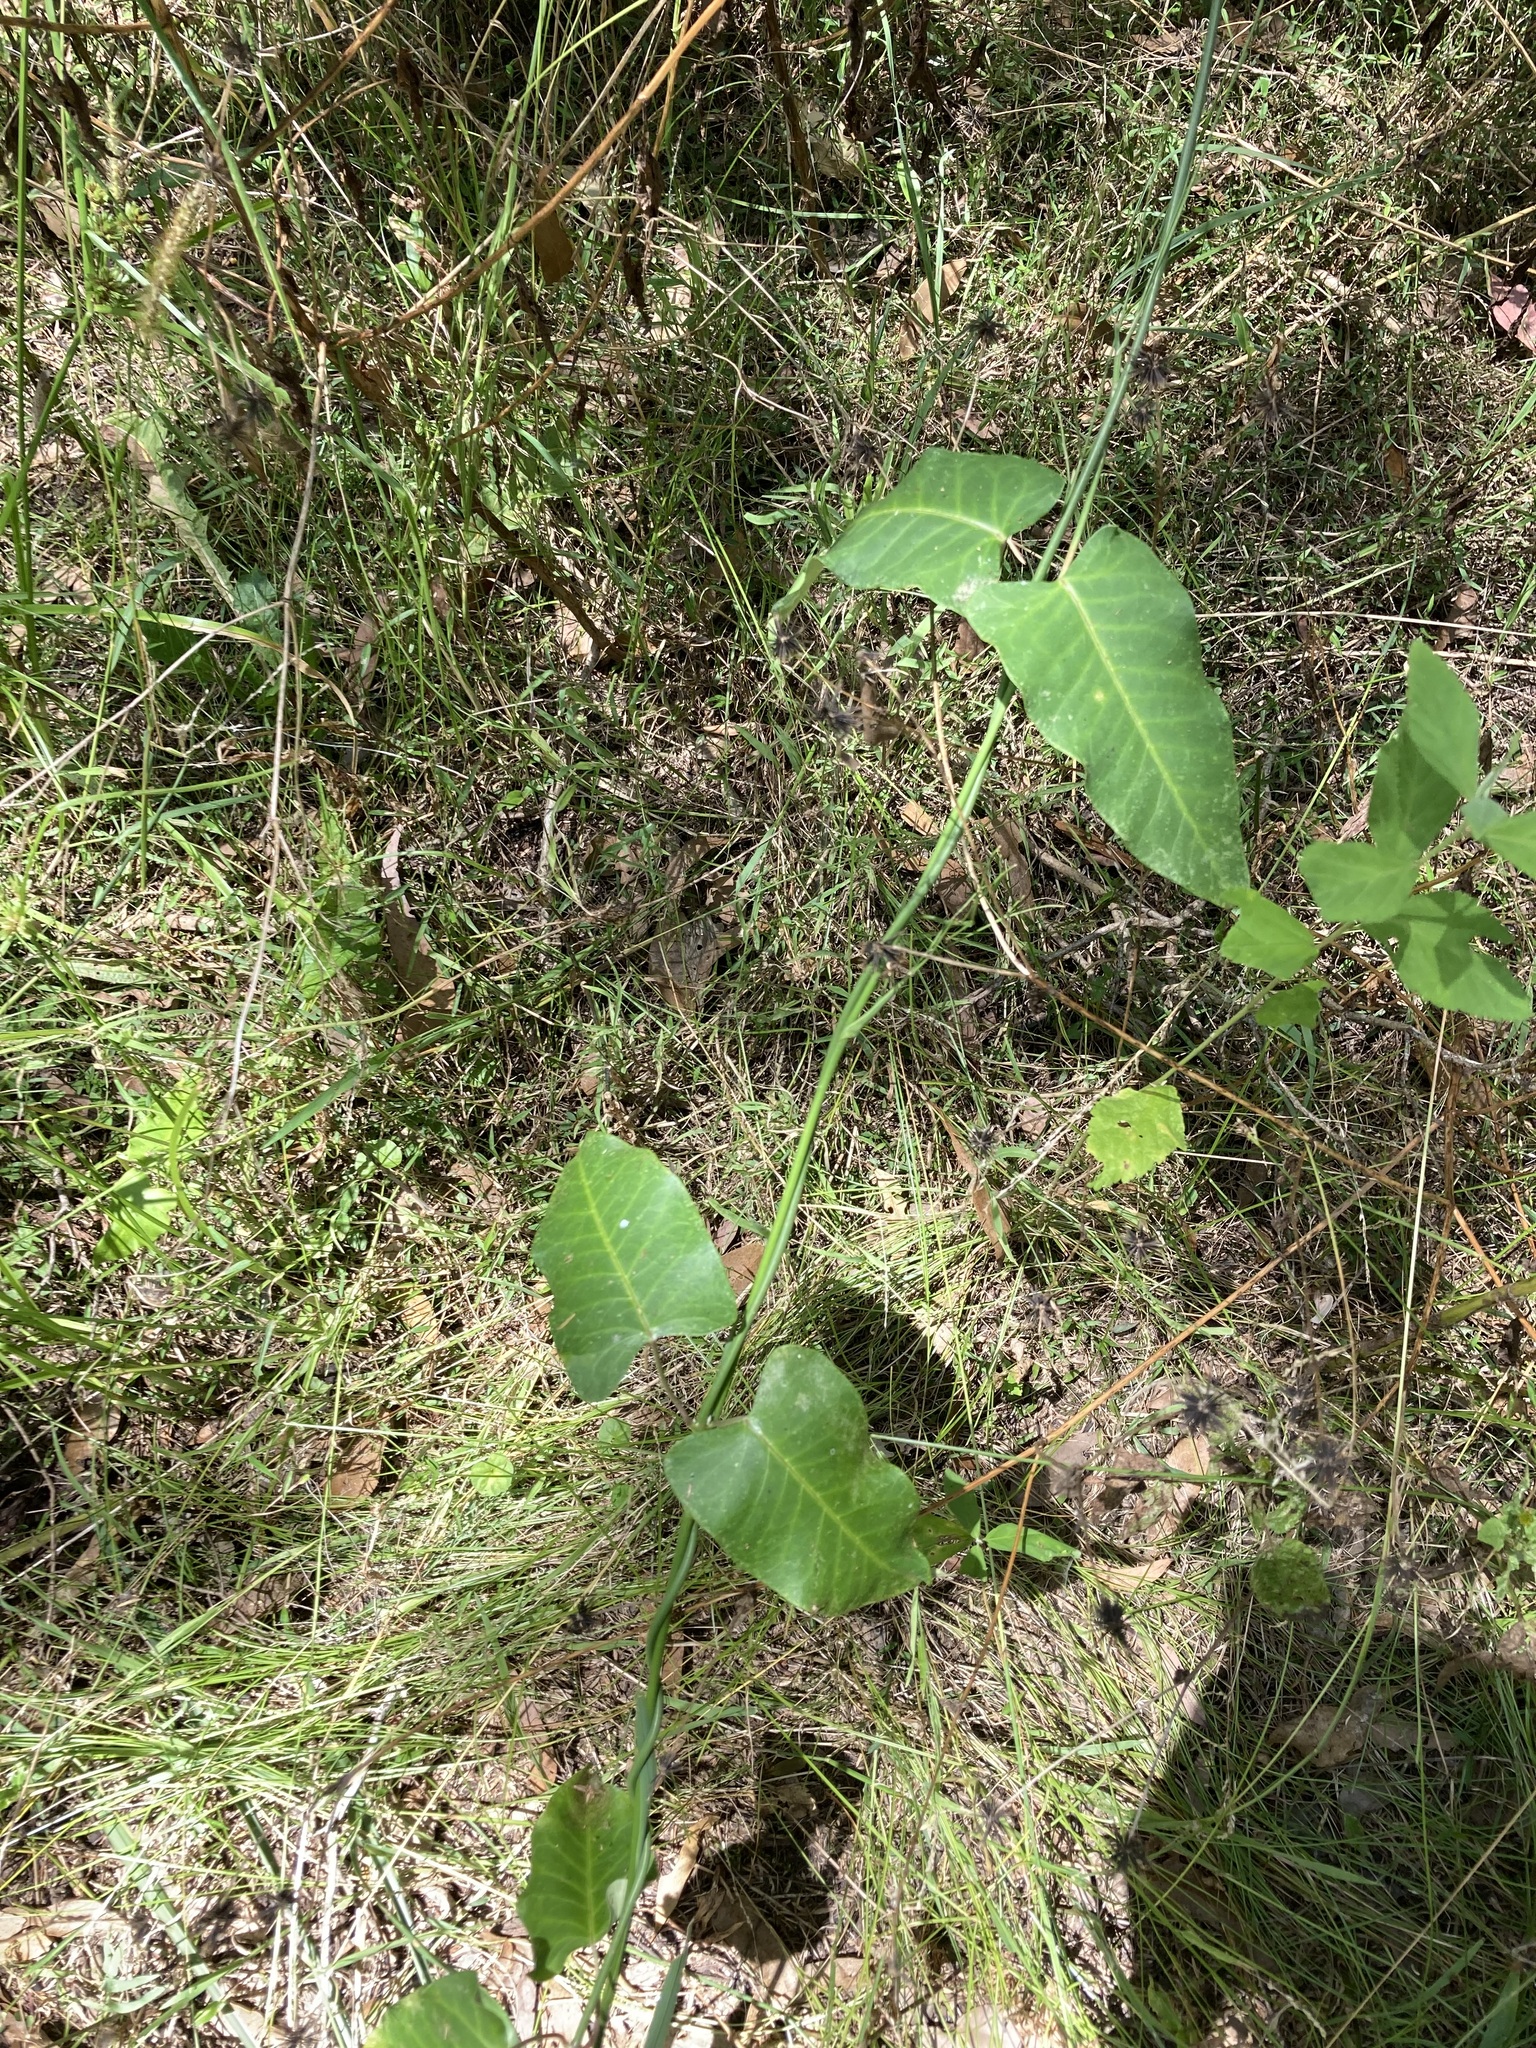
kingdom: Plantae
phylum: Tracheophyta
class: Magnoliopsida
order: Gentianales
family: Apocynaceae
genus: Araujia
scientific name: Araujia sericifera
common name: White bladderflower
